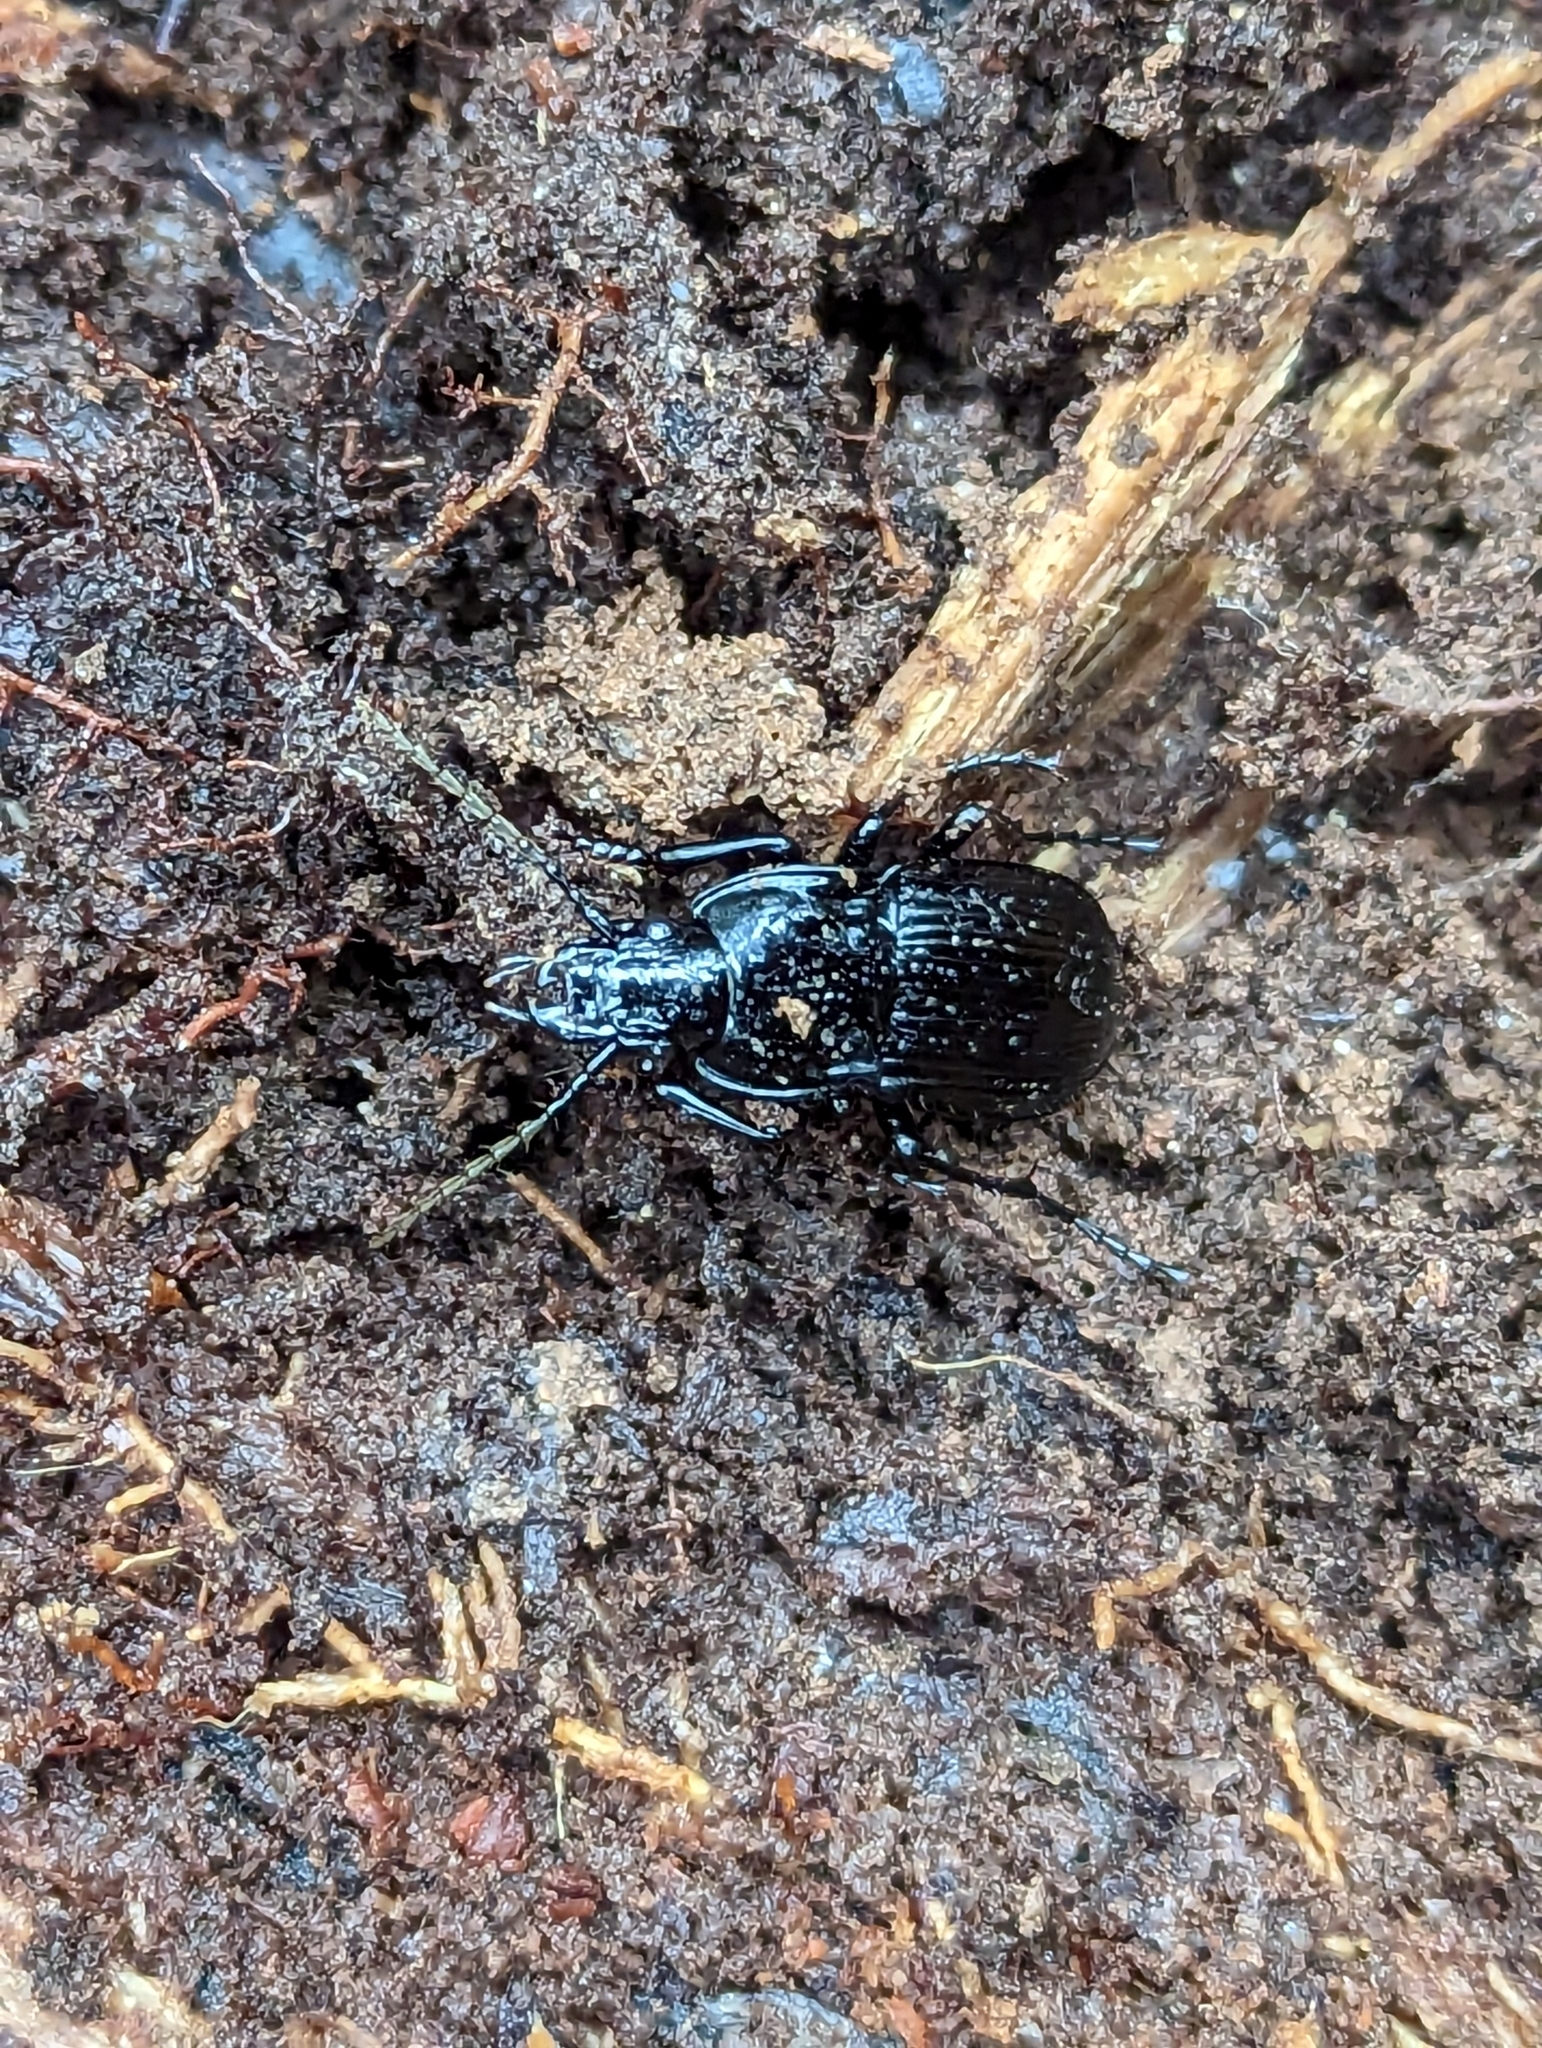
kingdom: Animalia
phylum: Arthropoda
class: Insecta
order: Coleoptera
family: Carabidae
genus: Abax
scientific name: Abax parallelepipedus
